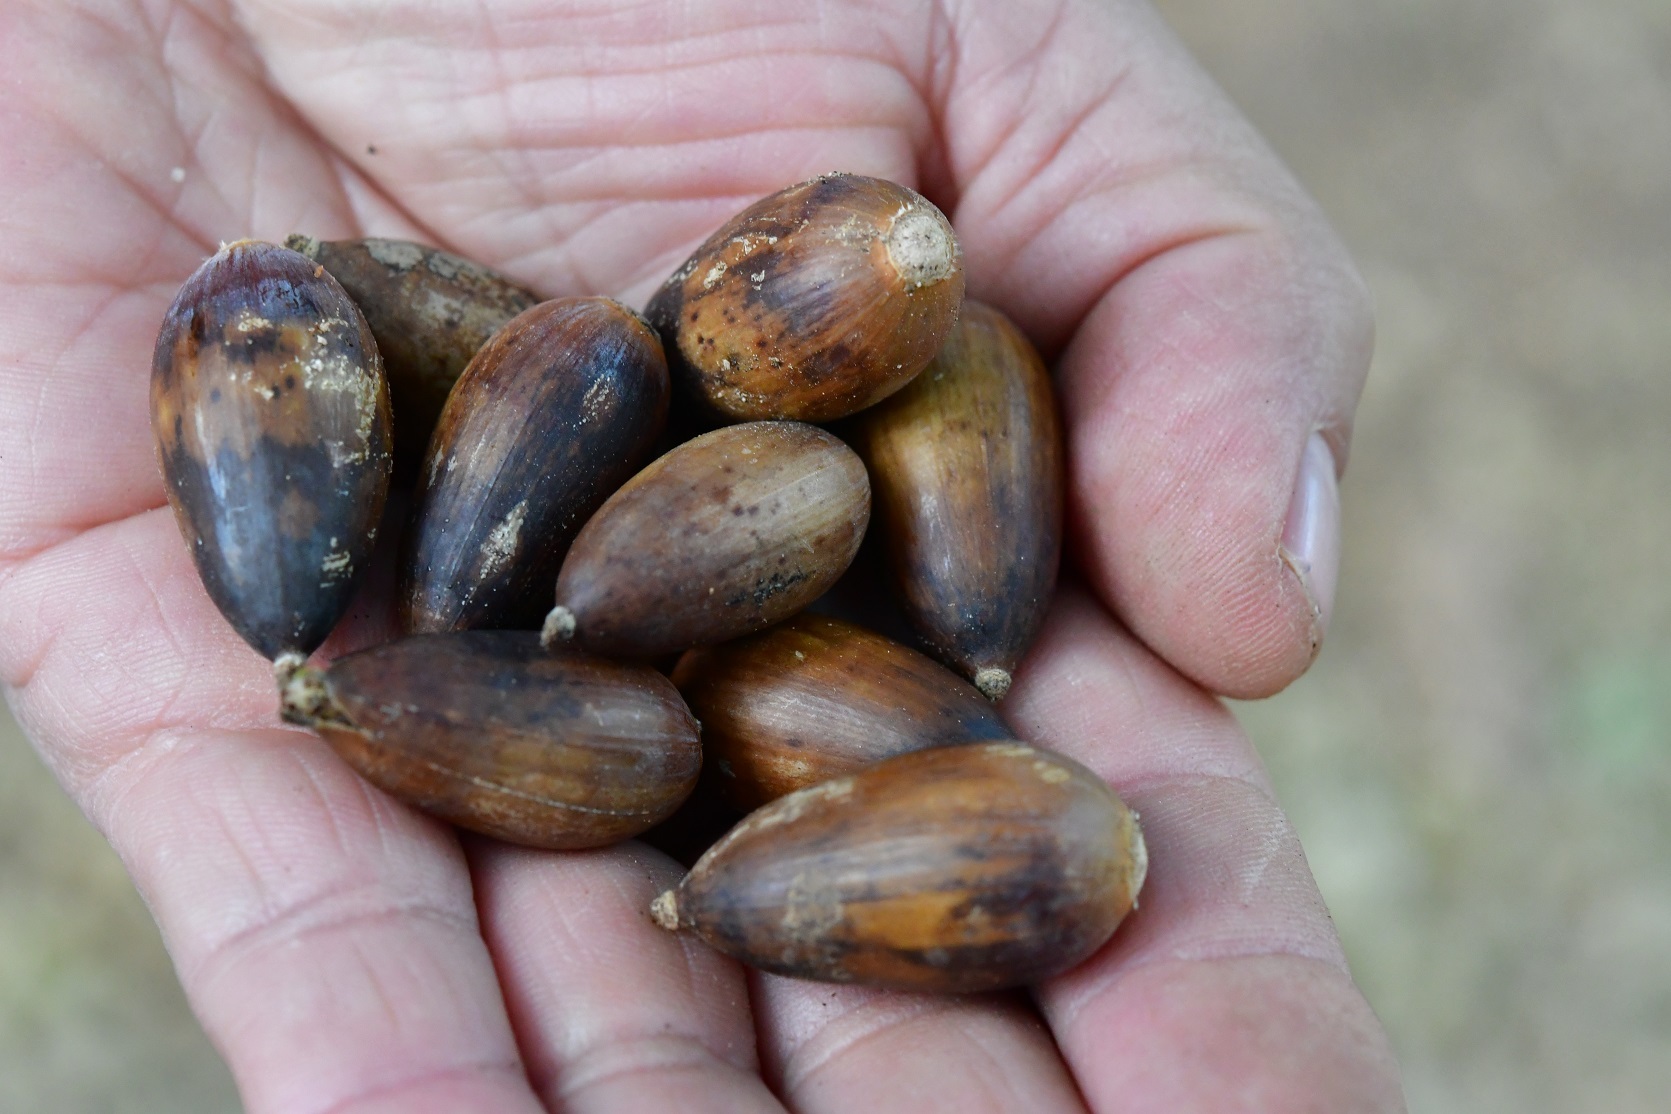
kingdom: Plantae
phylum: Tracheophyta
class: Magnoliopsida
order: Fagales
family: Fagaceae
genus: Quercus
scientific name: Quercus rugosa
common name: Netleaf oak
